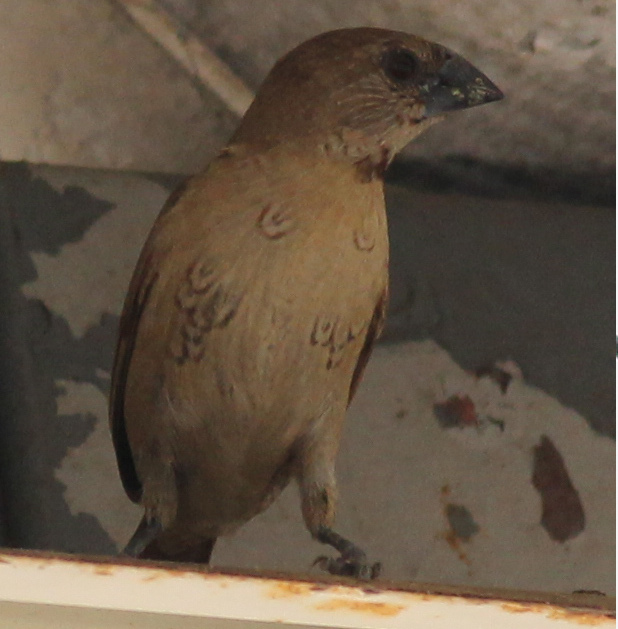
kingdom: Animalia
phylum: Chordata
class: Aves
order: Passeriformes
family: Estrildidae
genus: Lonchura
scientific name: Lonchura punctulata
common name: Scaly-breasted munia
